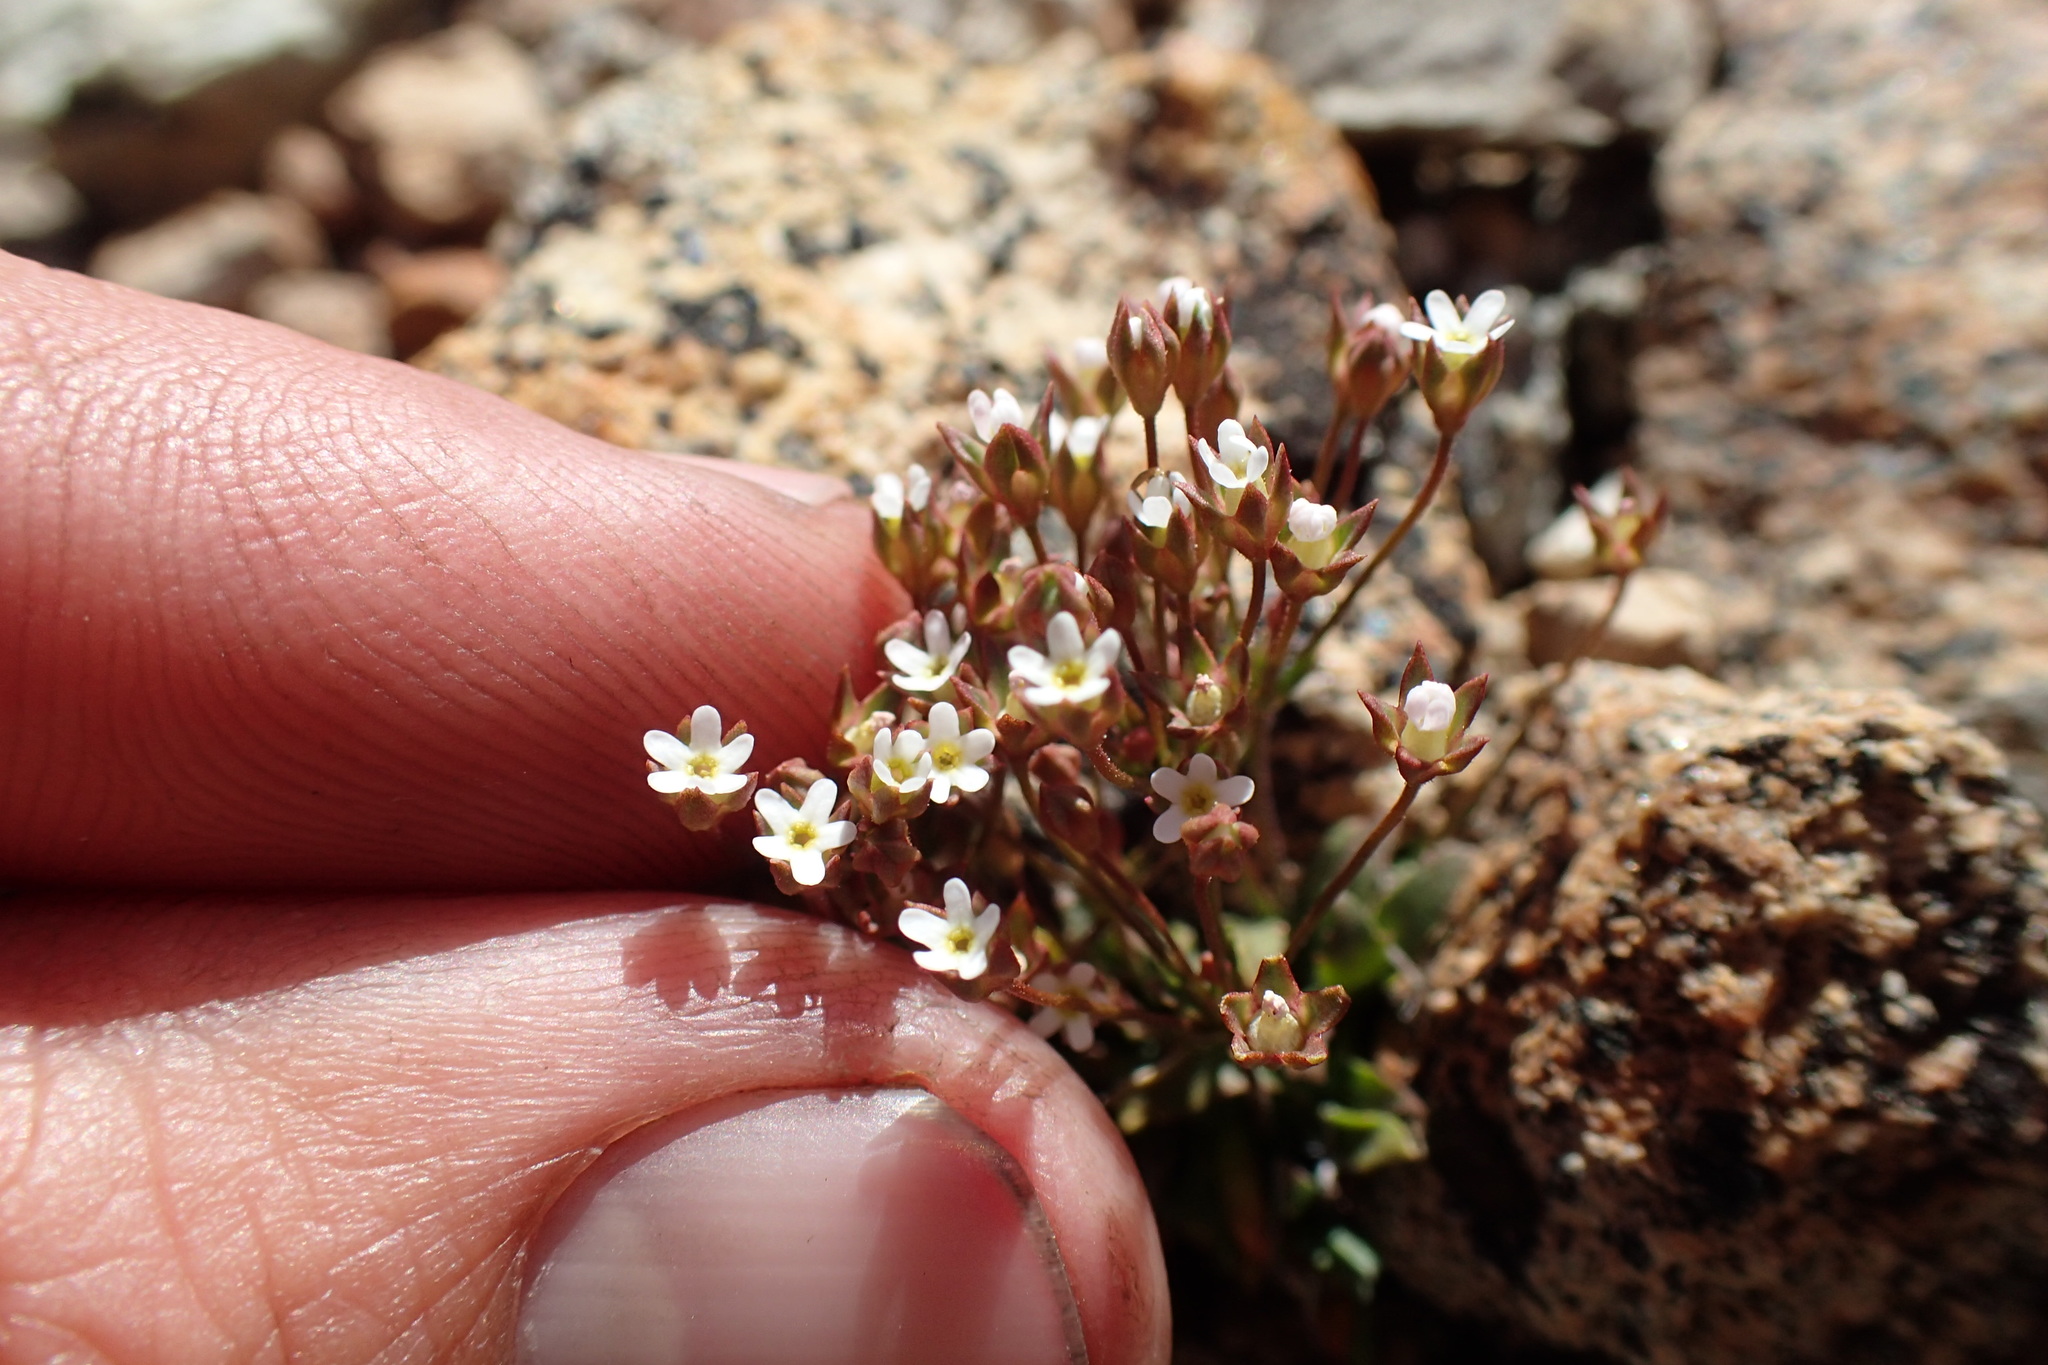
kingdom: Plantae
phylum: Tracheophyta
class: Magnoliopsida
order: Ericales
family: Primulaceae
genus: Androsace
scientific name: Androsace septentrionalis
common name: Hairy northern fairy-candelabra
